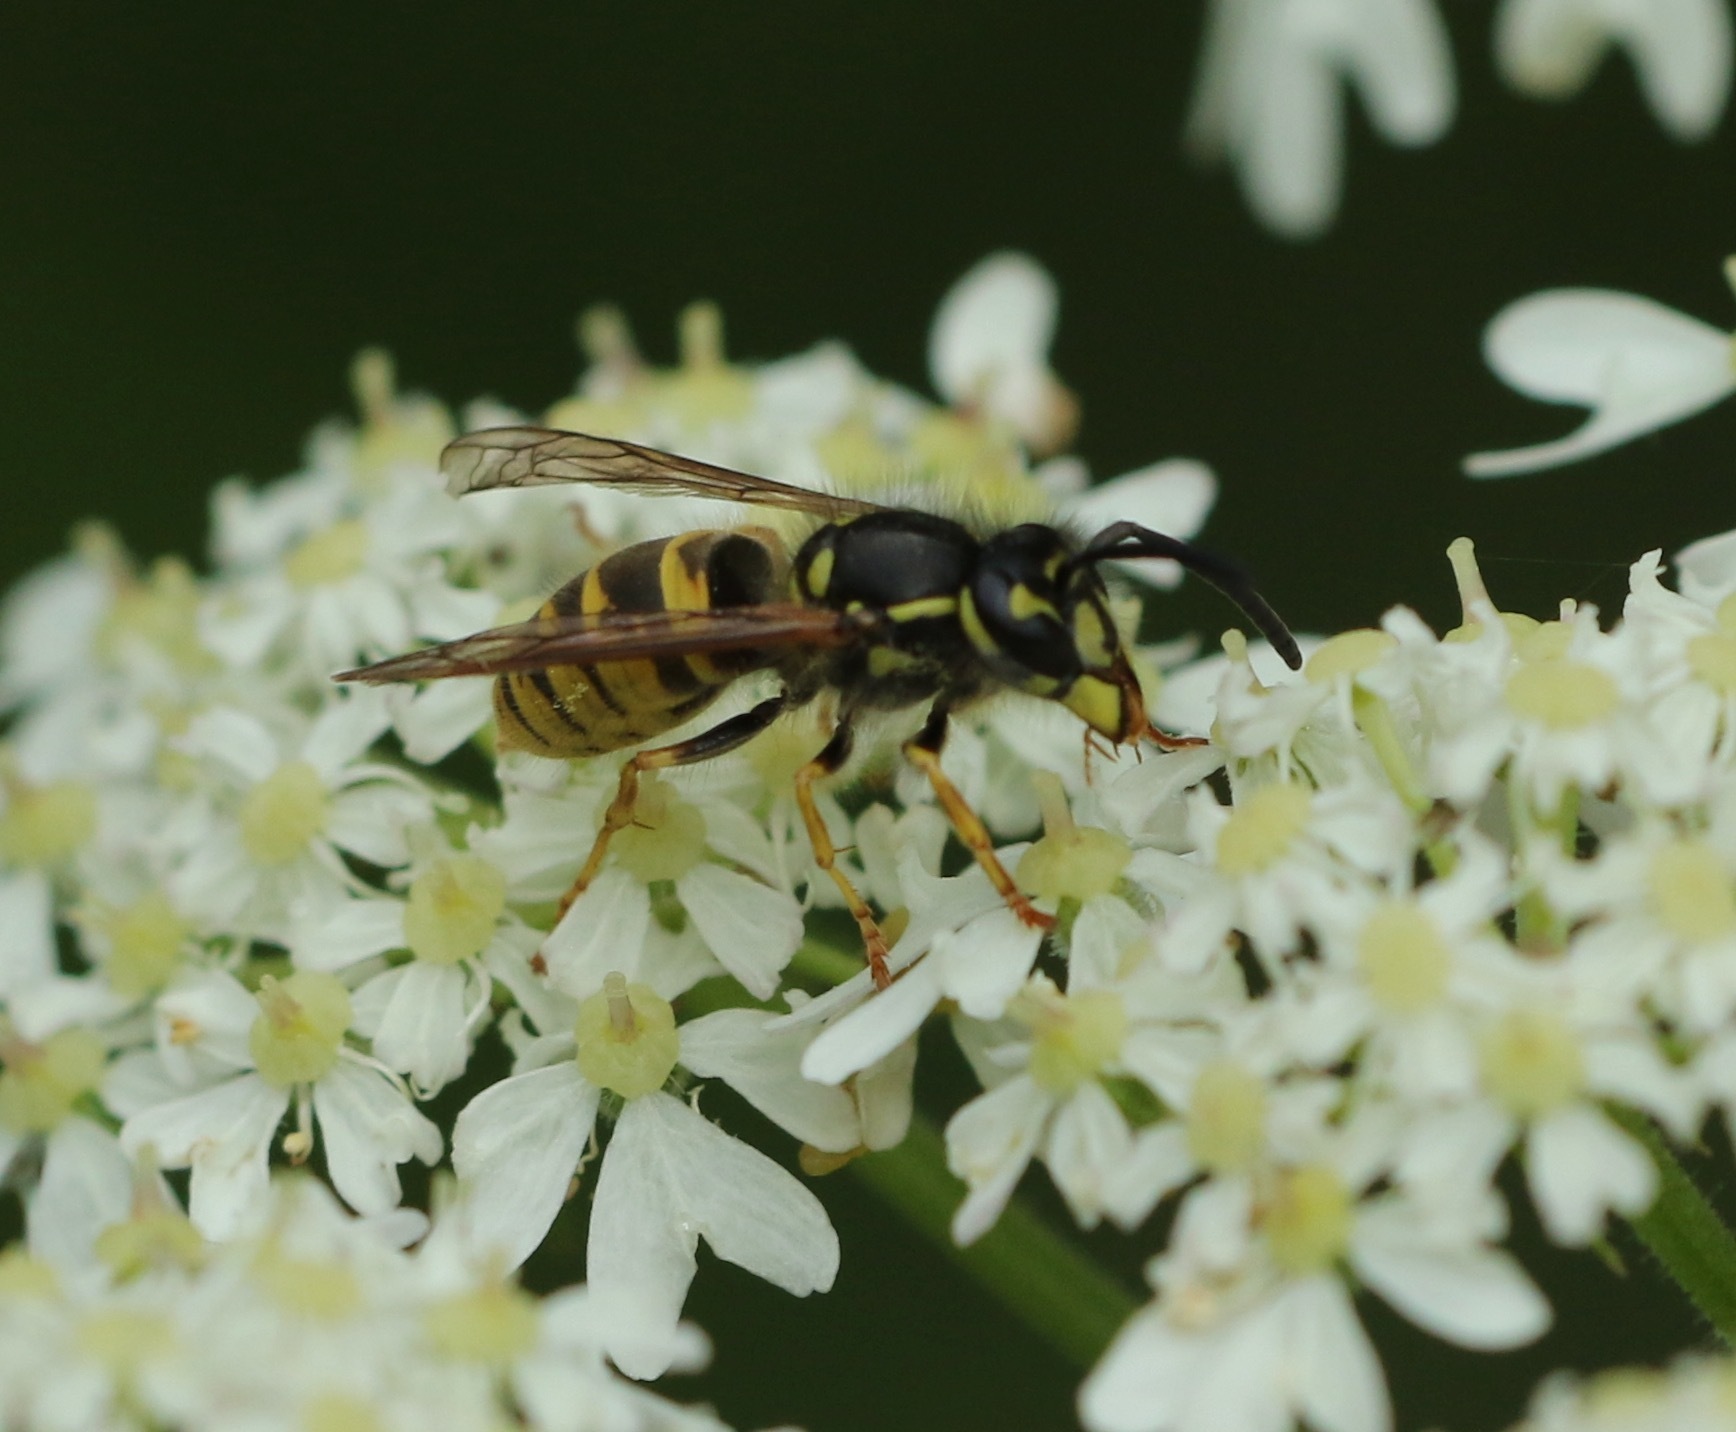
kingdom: Animalia
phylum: Arthropoda
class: Insecta
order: Hymenoptera
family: Vespidae
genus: Vespula
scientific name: Vespula vulgaris
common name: Common wasp
